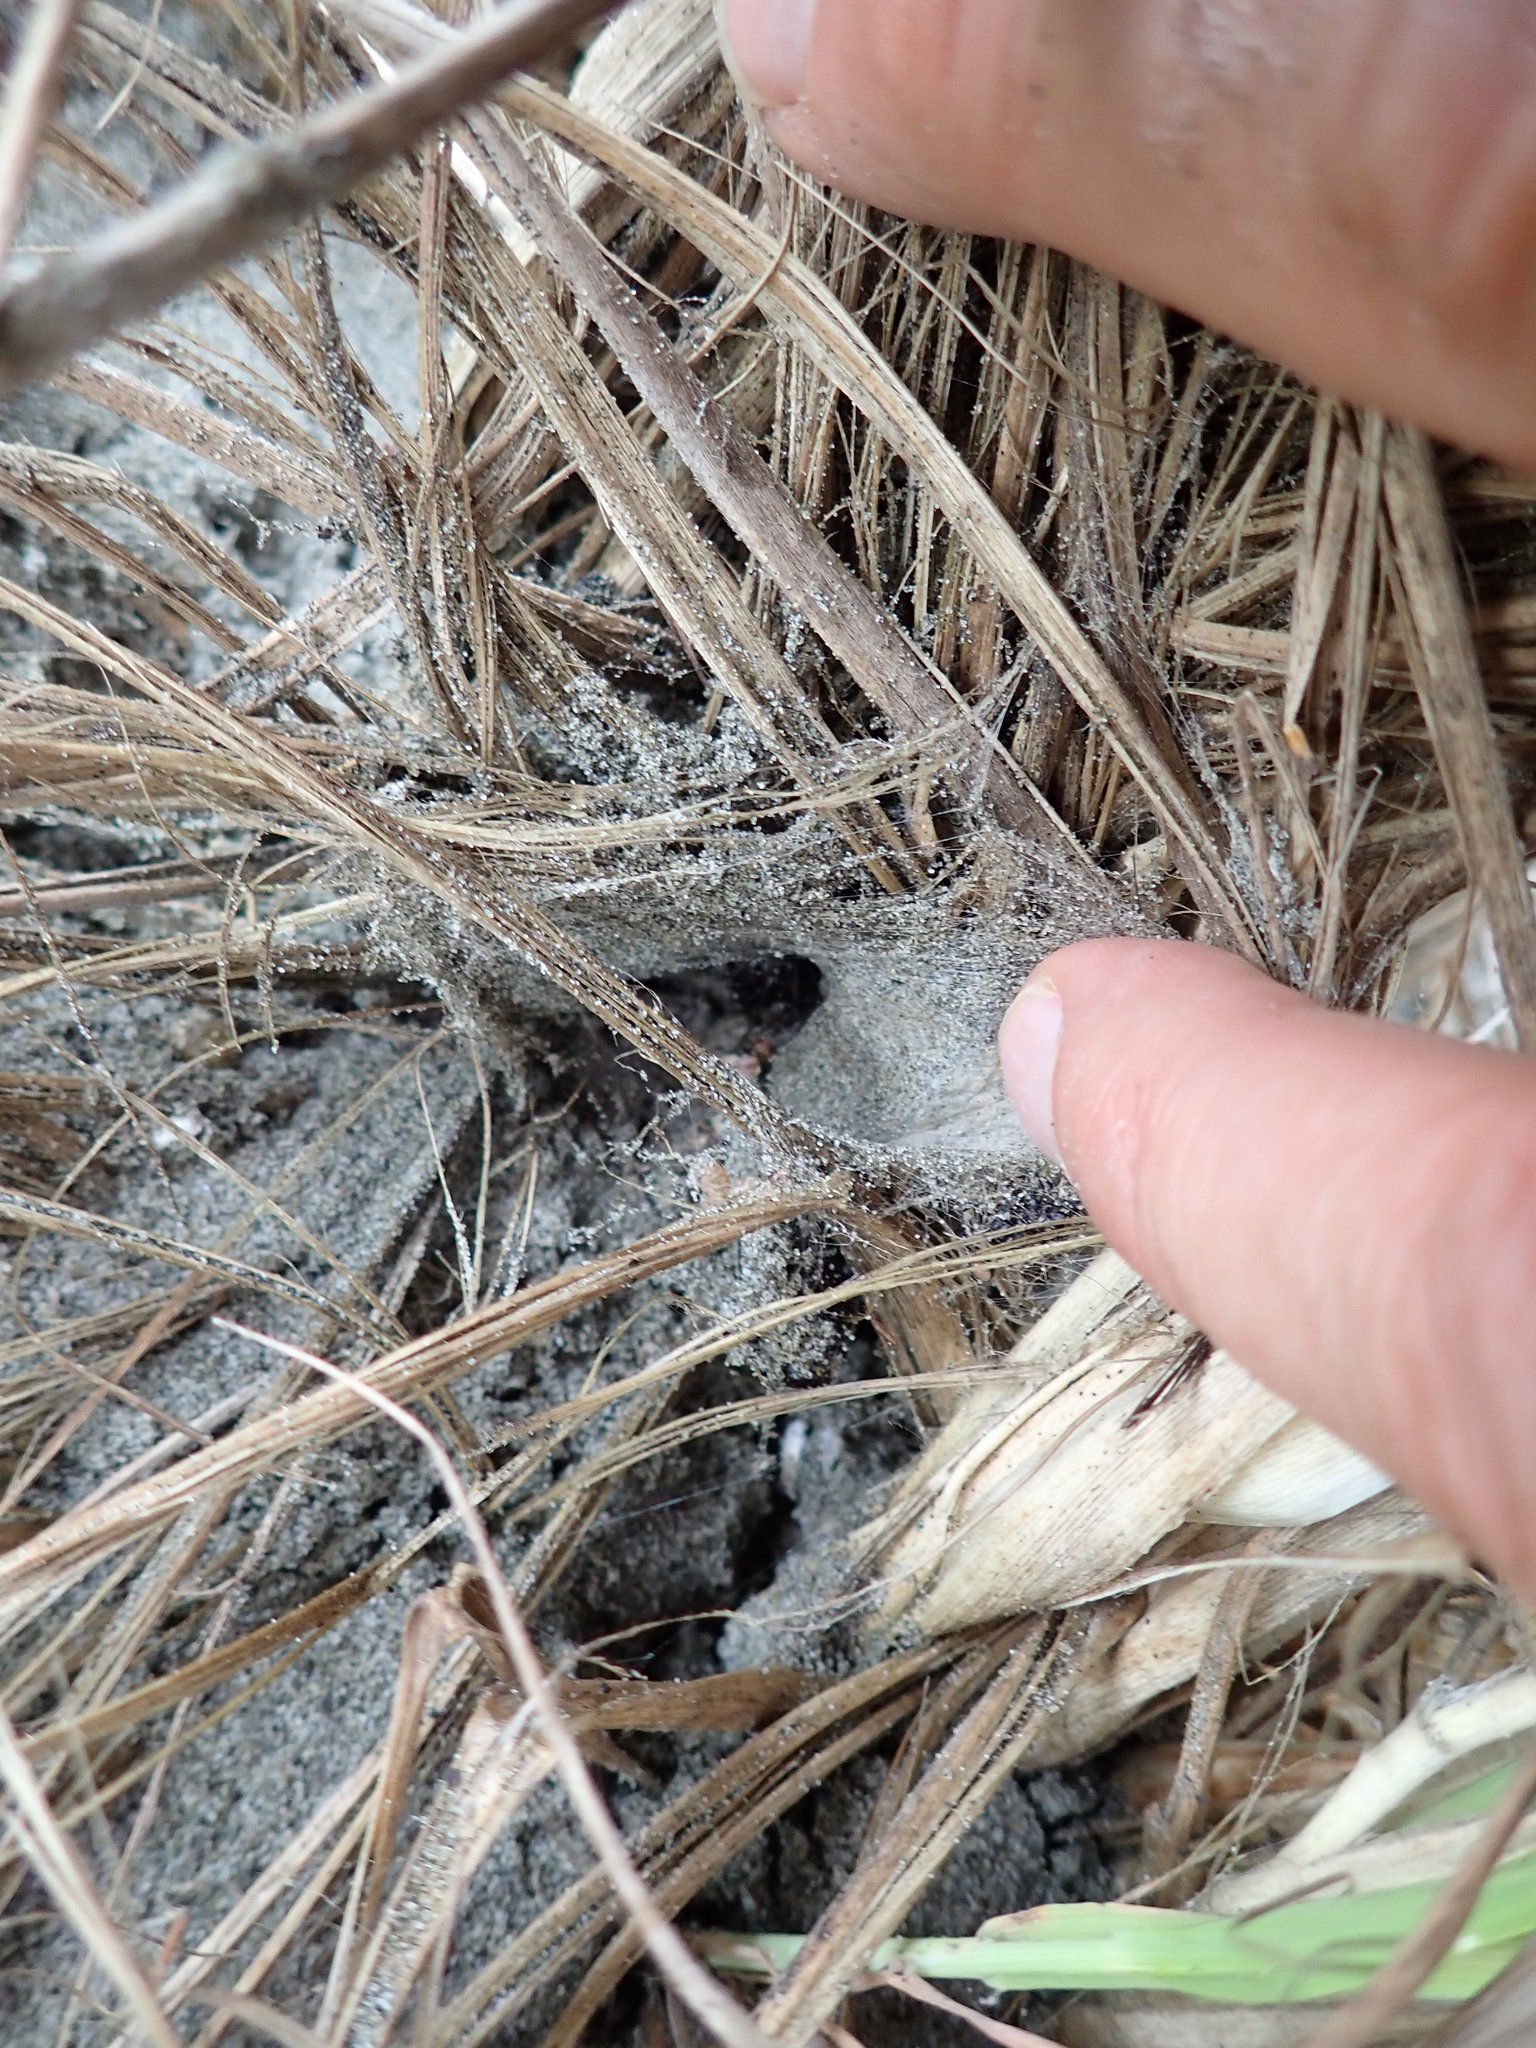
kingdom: Animalia
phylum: Arthropoda
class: Arachnida
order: Araneae
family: Theridiidae
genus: Latrodectus
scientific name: Latrodectus katipo
